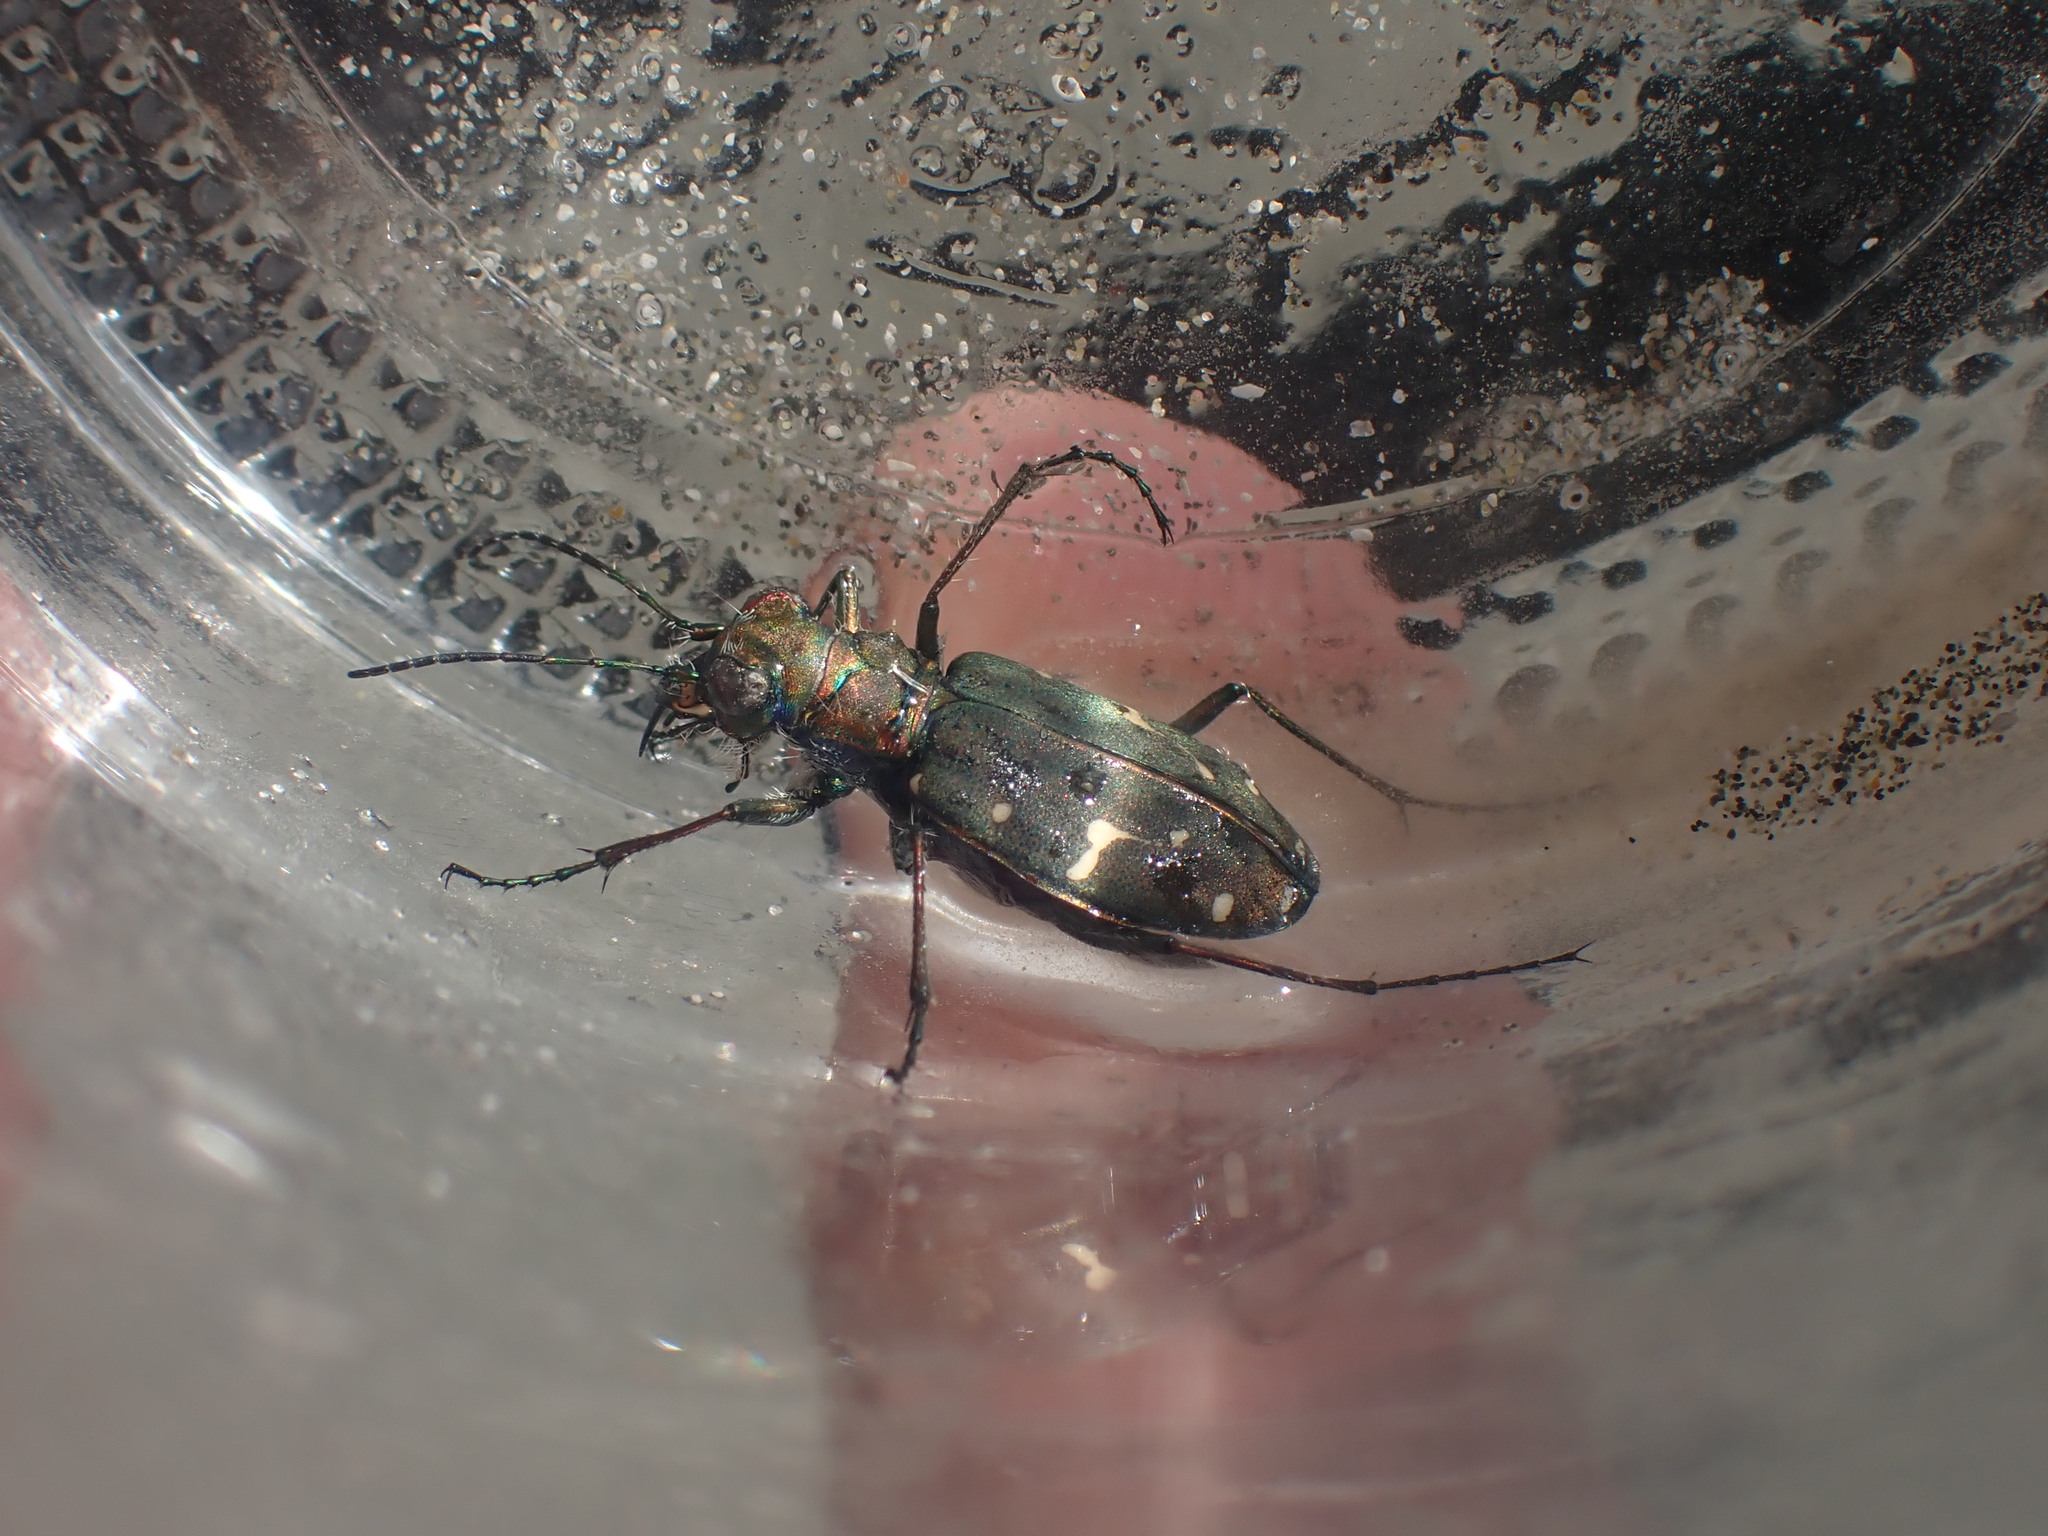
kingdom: Animalia
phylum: Arthropoda
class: Insecta
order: Coleoptera
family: Carabidae
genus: Cicindela
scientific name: Cicindela oregona
